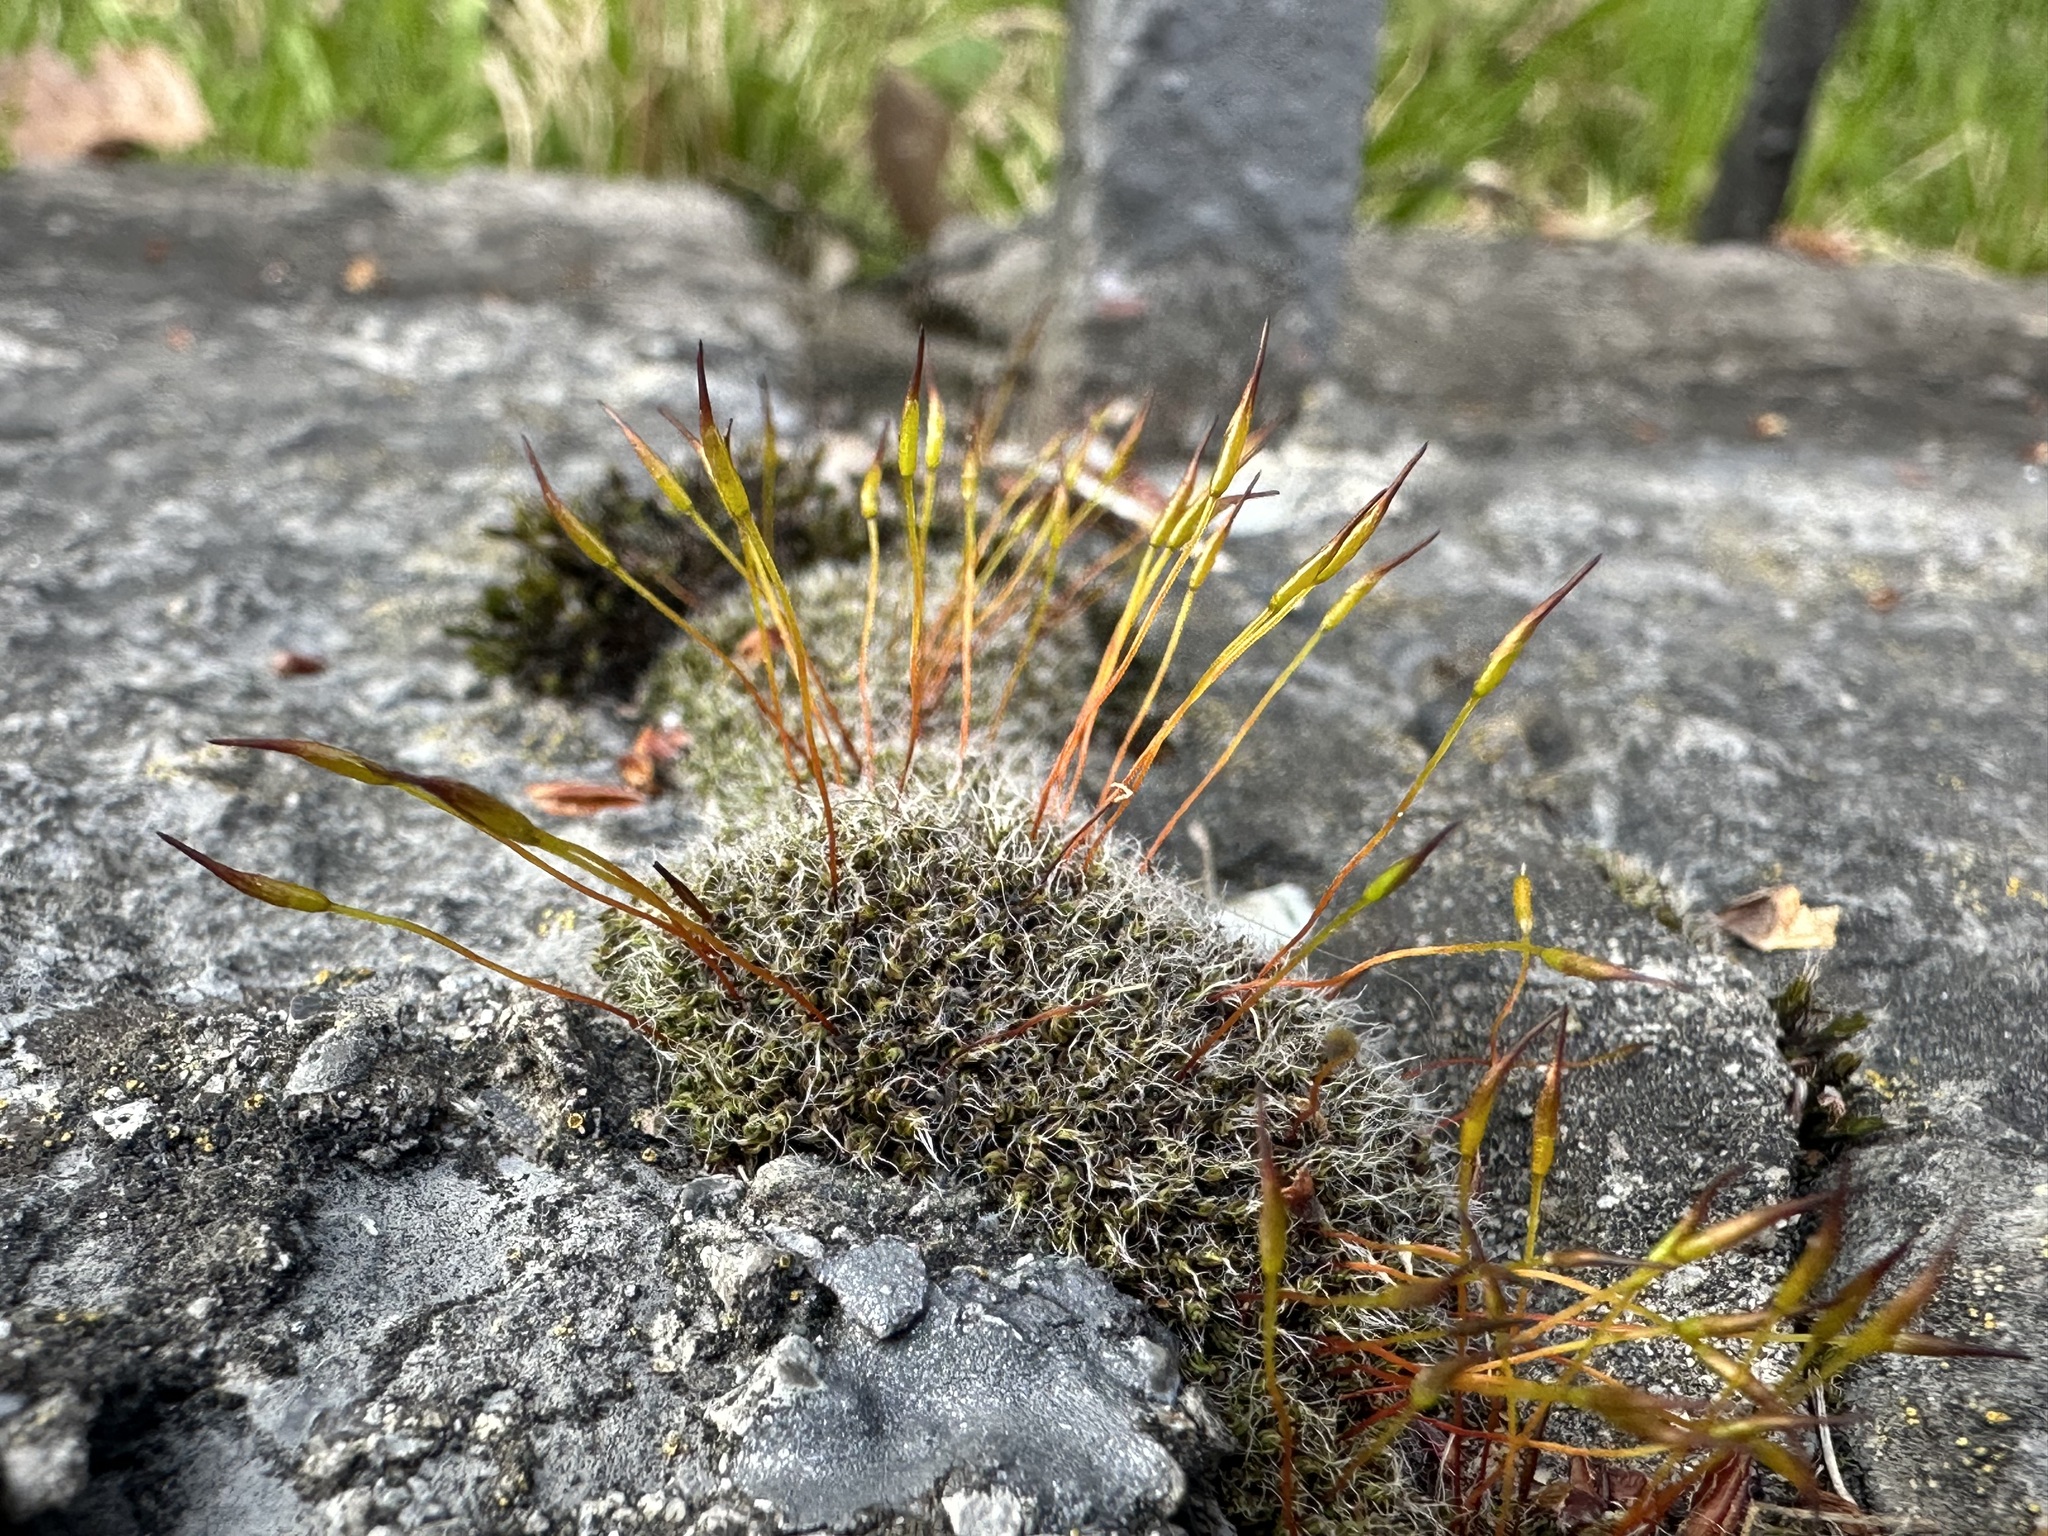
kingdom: Plantae
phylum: Bryophyta
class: Bryopsida
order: Pottiales
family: Pottiaceae
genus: Tortula
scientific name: Tortula muralis
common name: Wall screw-moss
